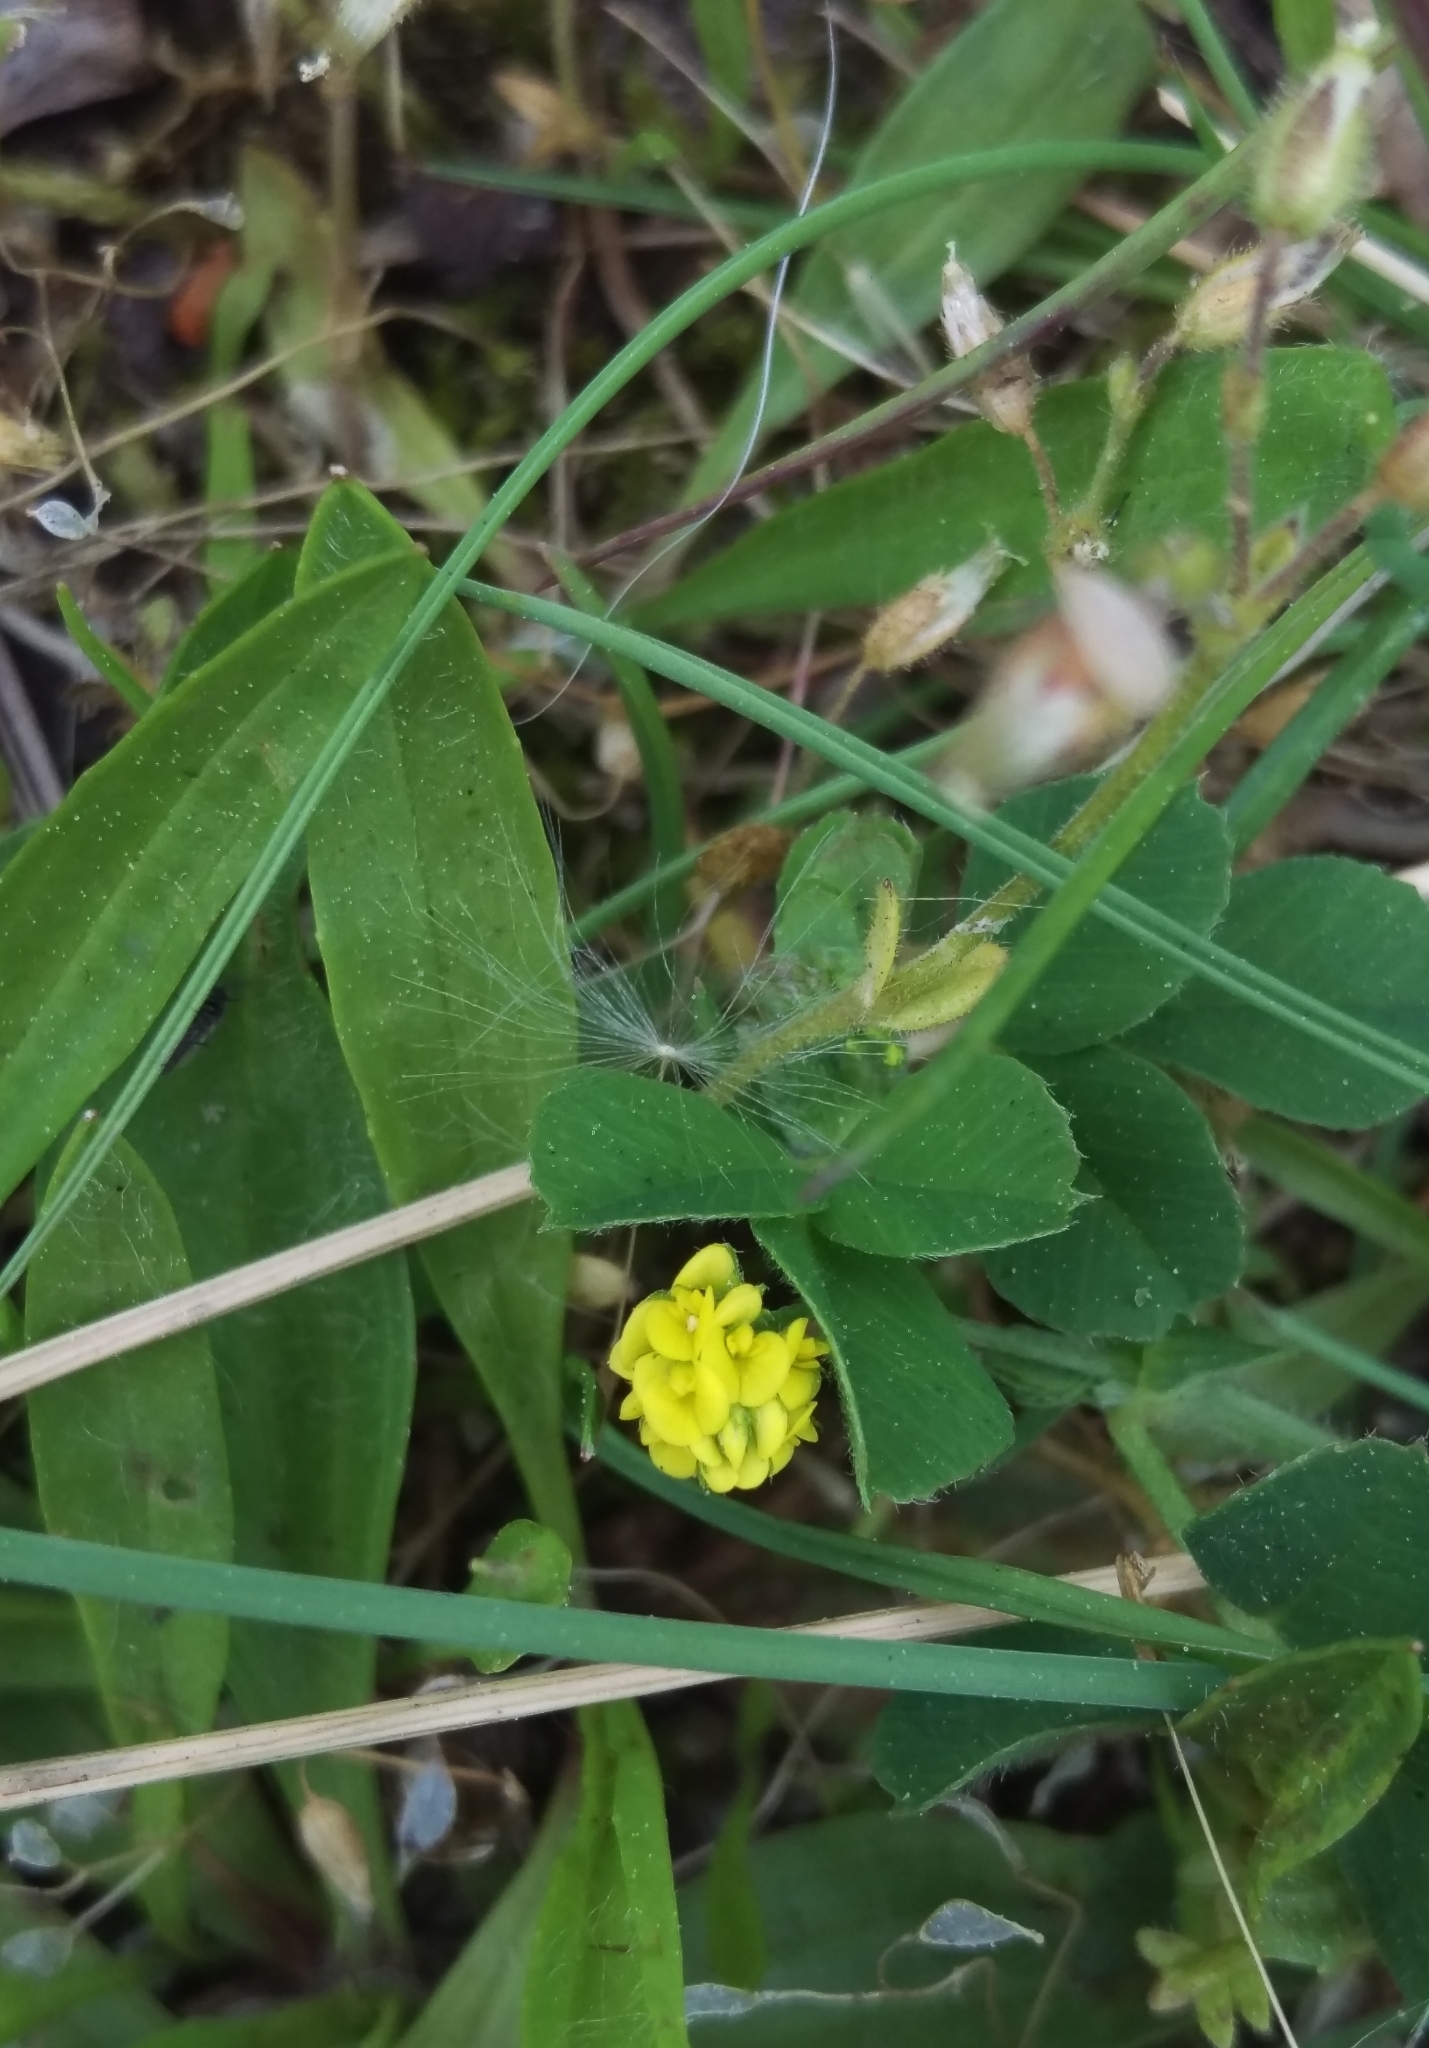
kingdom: Plantae
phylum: Tracheophyta
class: Magnoliopsida
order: Fabales
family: Fabaceae
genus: Medicago
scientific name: Medicago lupulina
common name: Black medick
